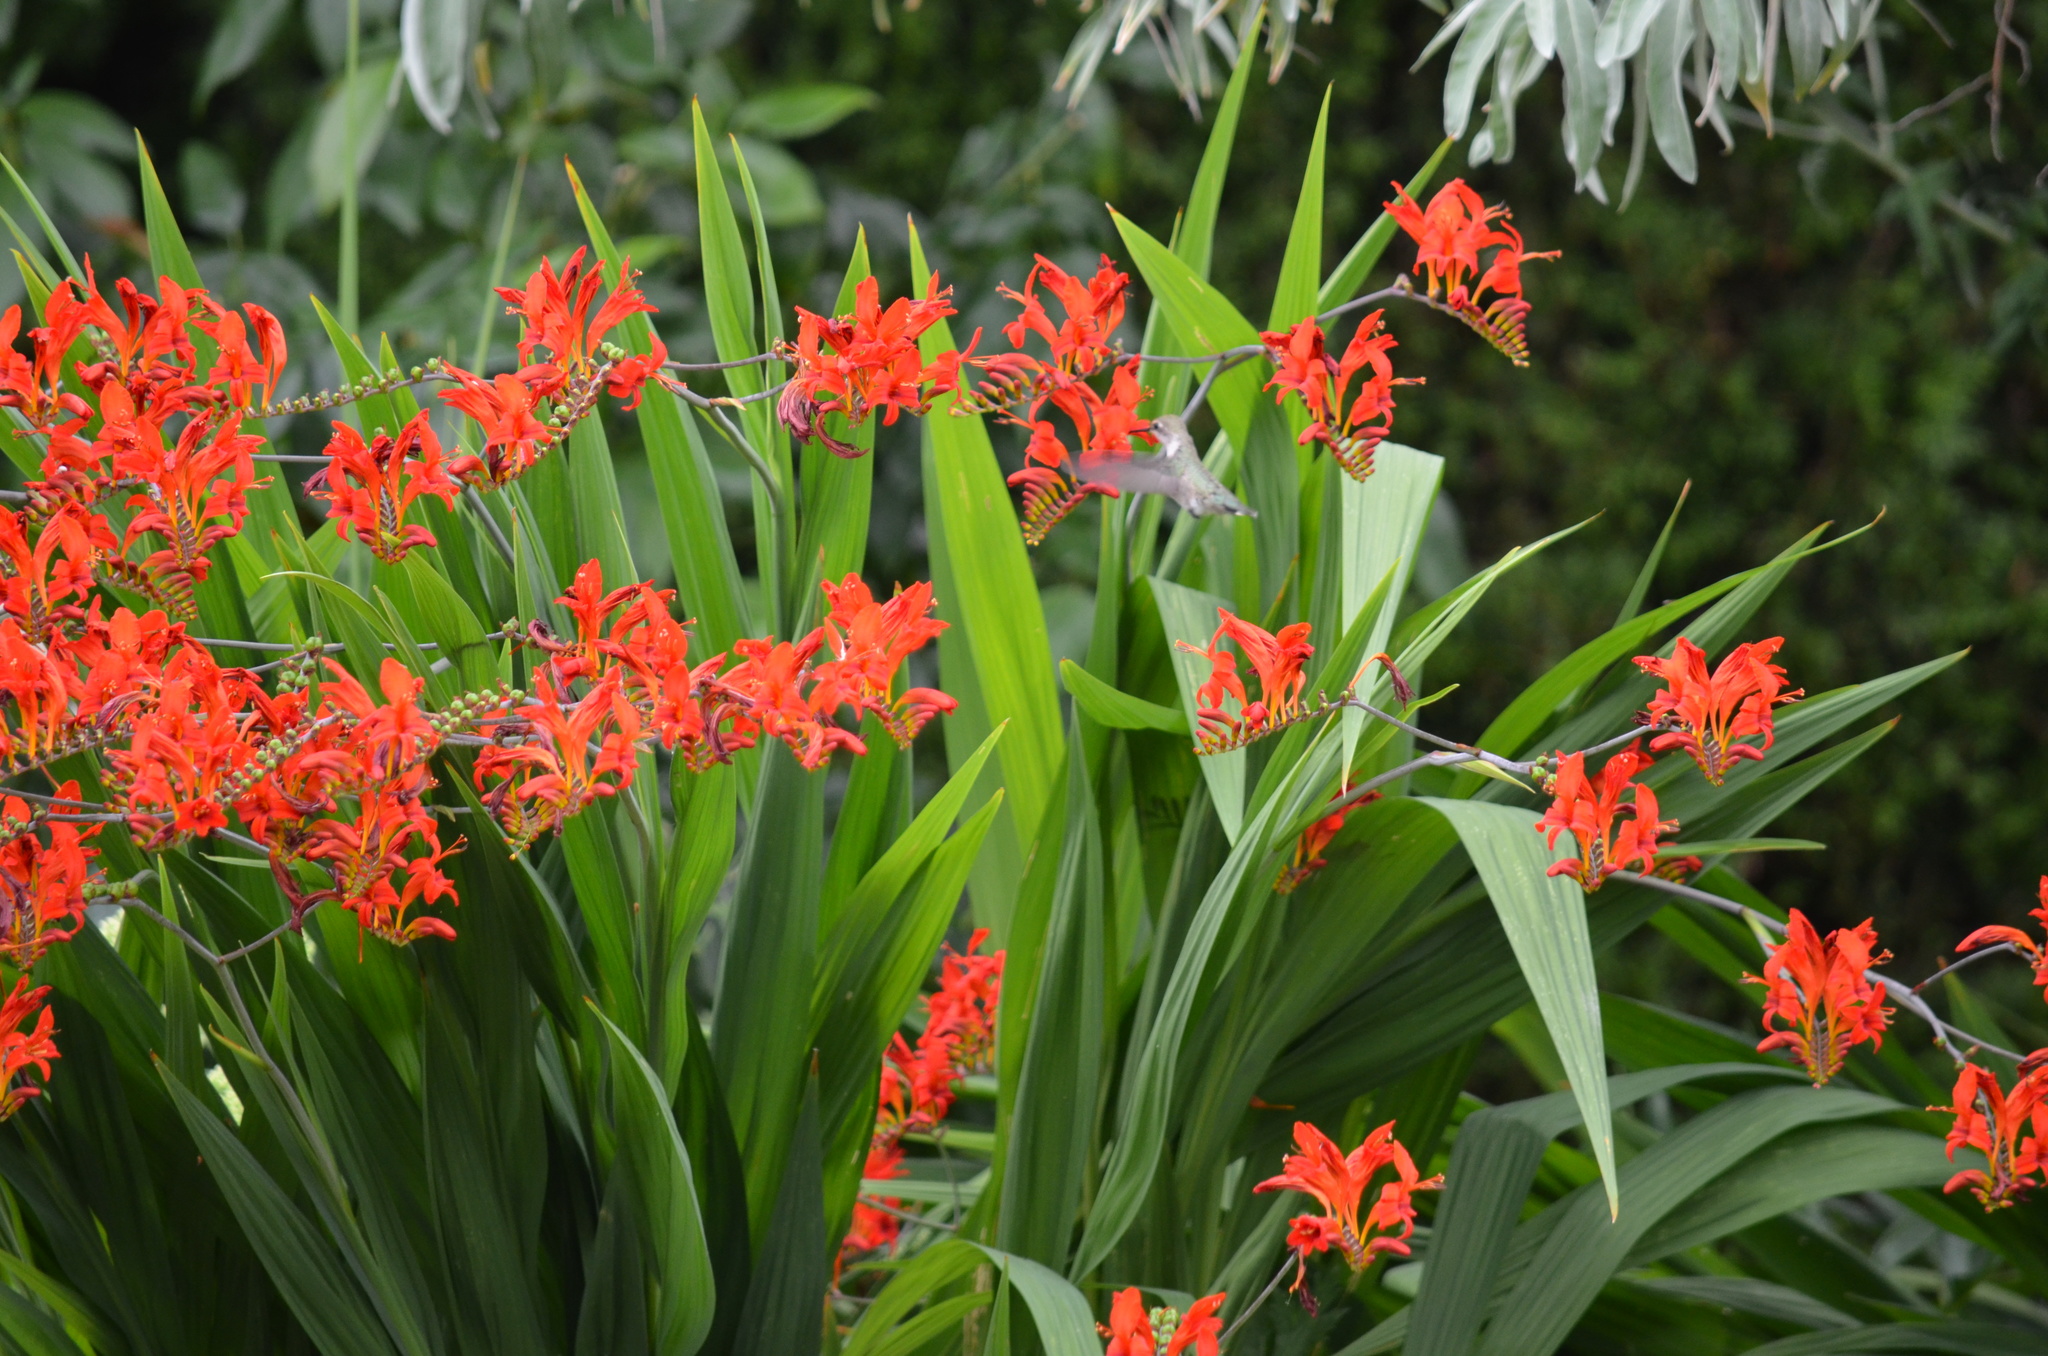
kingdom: Animalia
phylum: Chordata
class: Aves
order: Apodiformes
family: Trochilidae
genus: Calypte
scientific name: Calypte anna
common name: Anna's hummingbird
